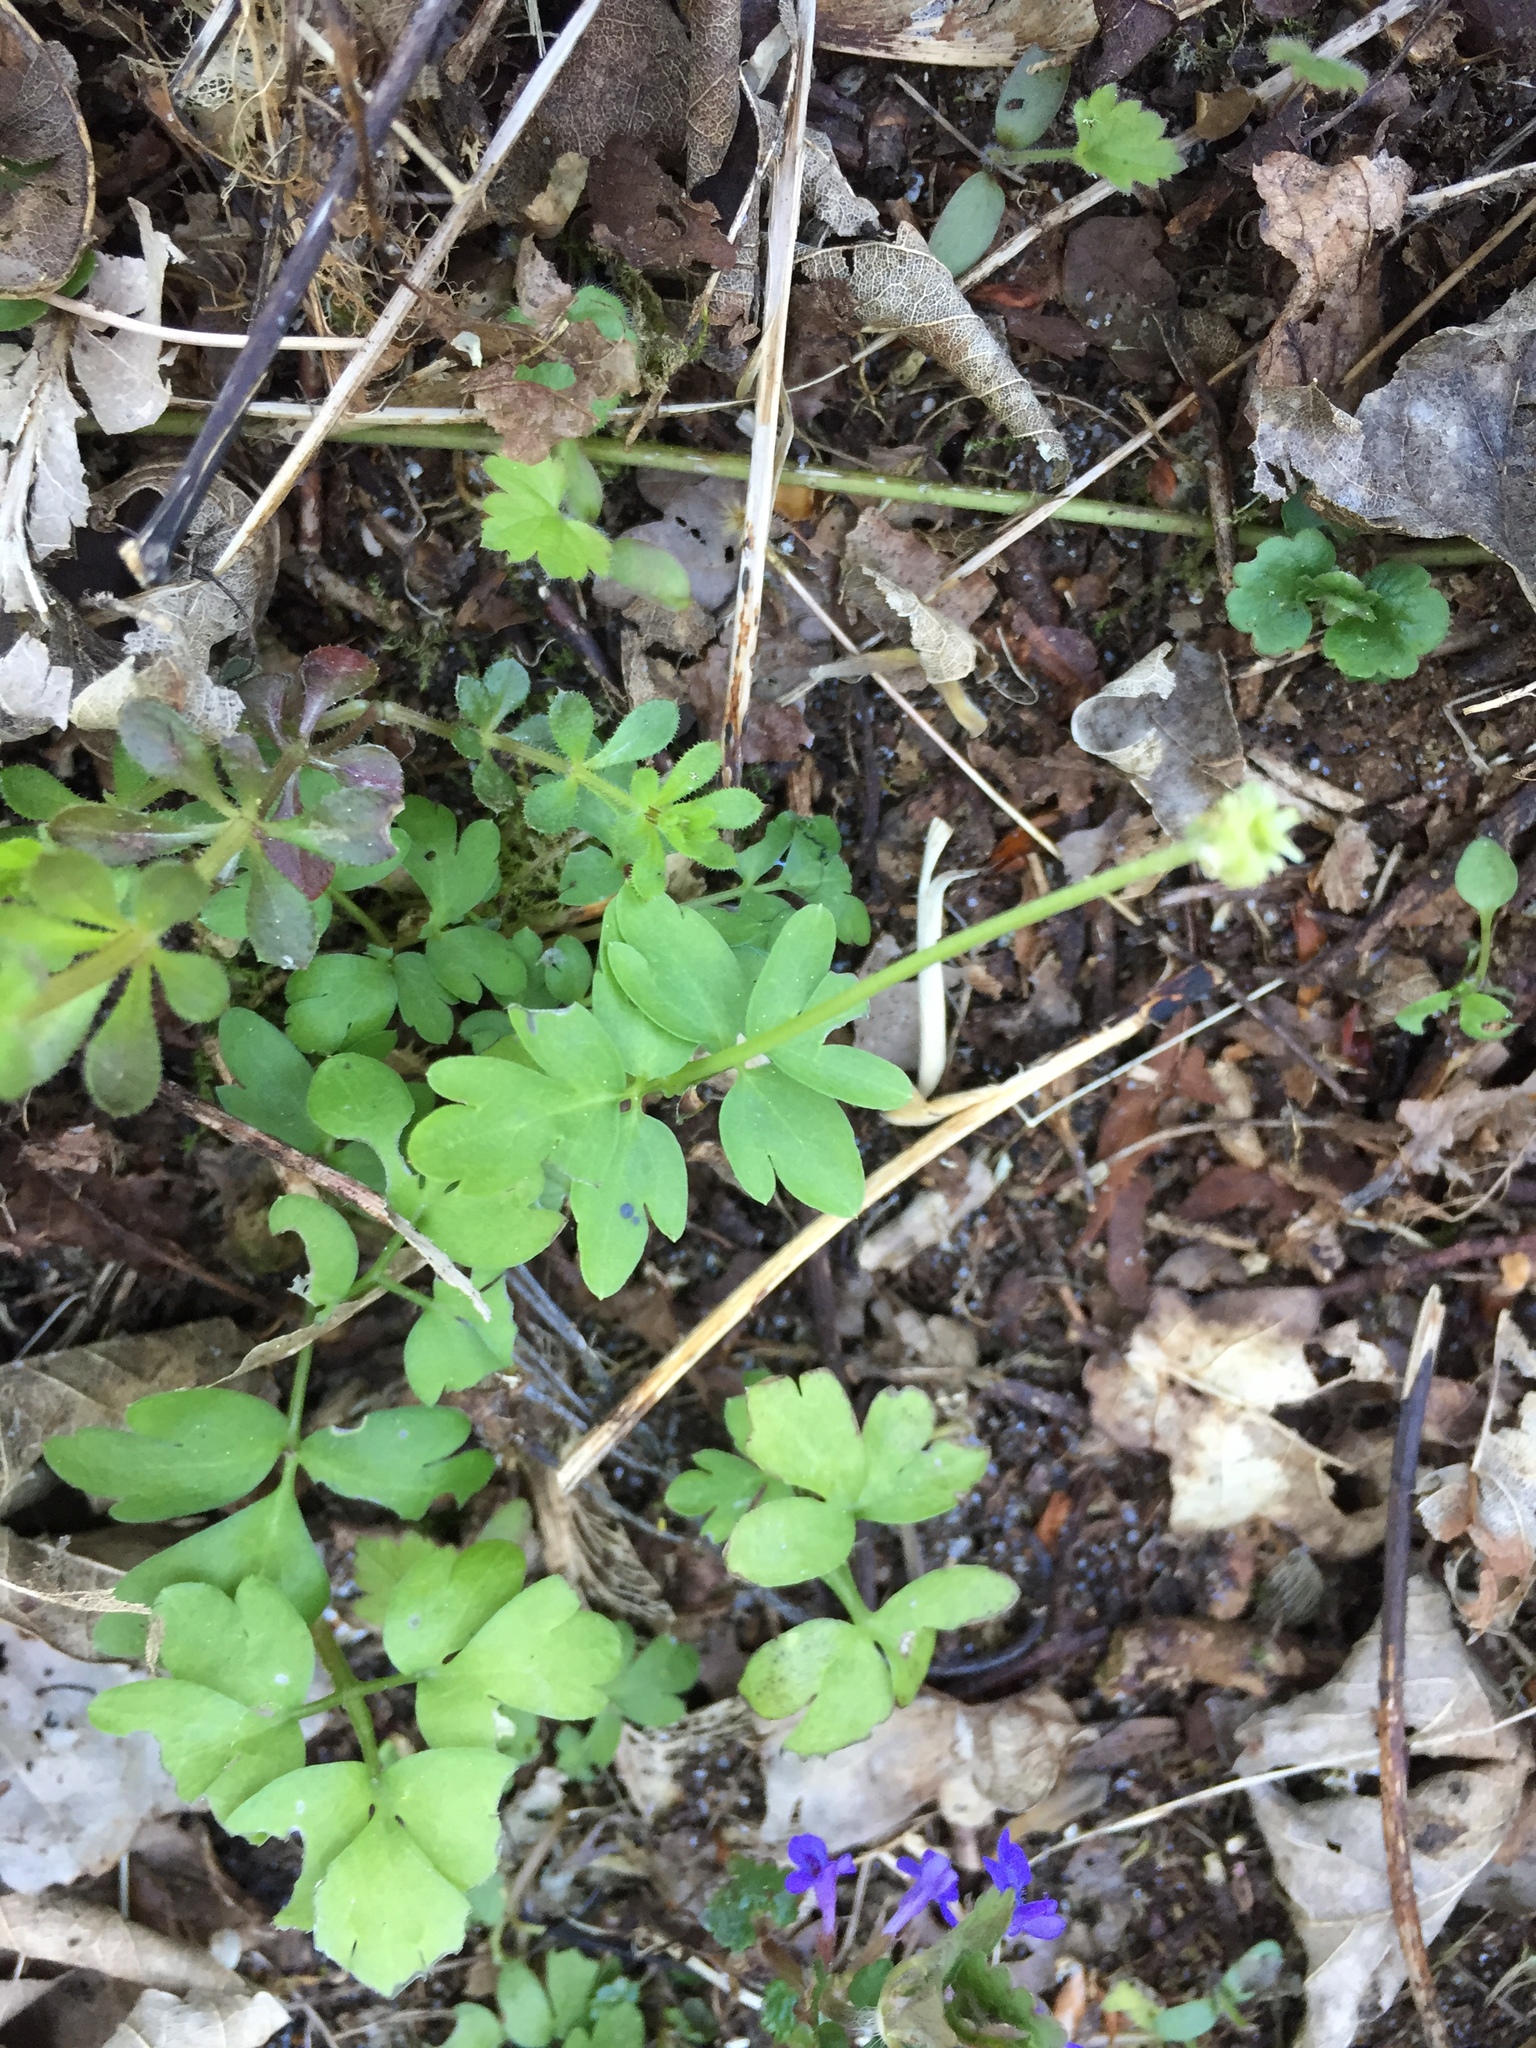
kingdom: Plantae
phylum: Tracheophyta
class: Magnoliopsida
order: Dipsacales
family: Viburnaceae
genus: Adoxa
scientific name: Adoxa moschatellina
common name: Moschatel
